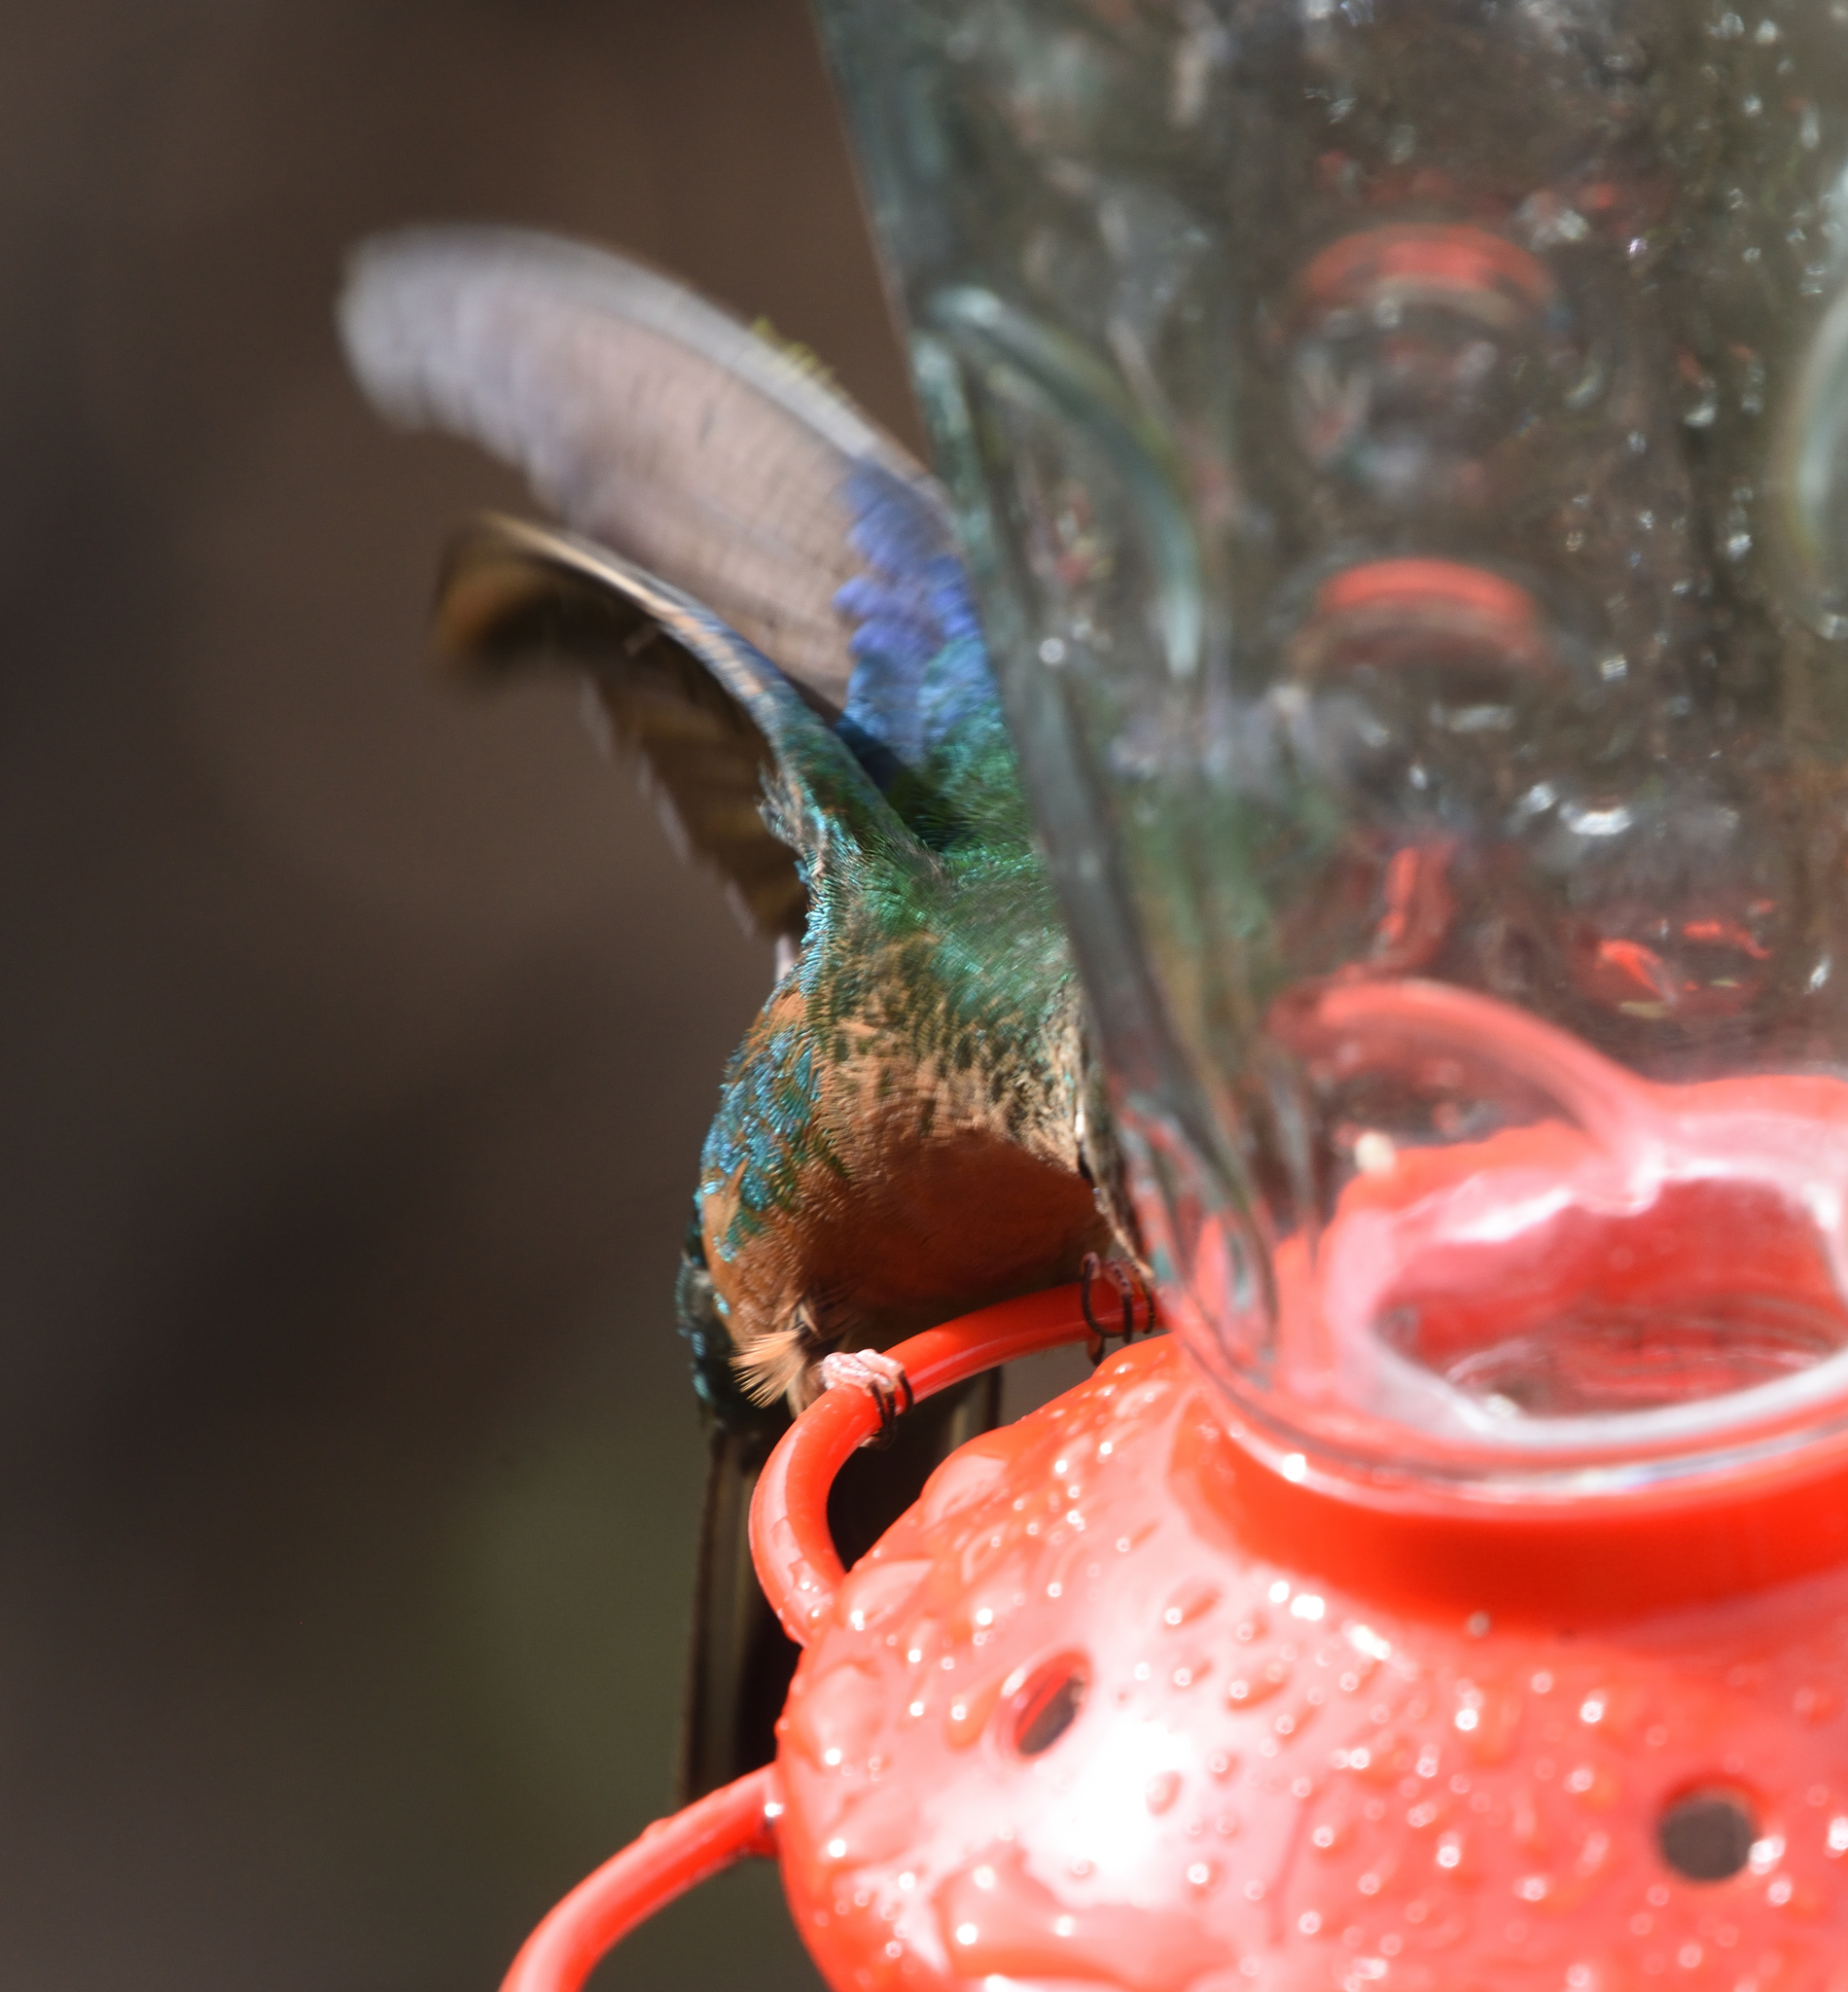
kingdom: Animalia
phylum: Chordata
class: Aves
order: Apodiformes
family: Trochilidae
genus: Pterophanes
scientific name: Pterophanes cyanopterus
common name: Great sapphirewing
